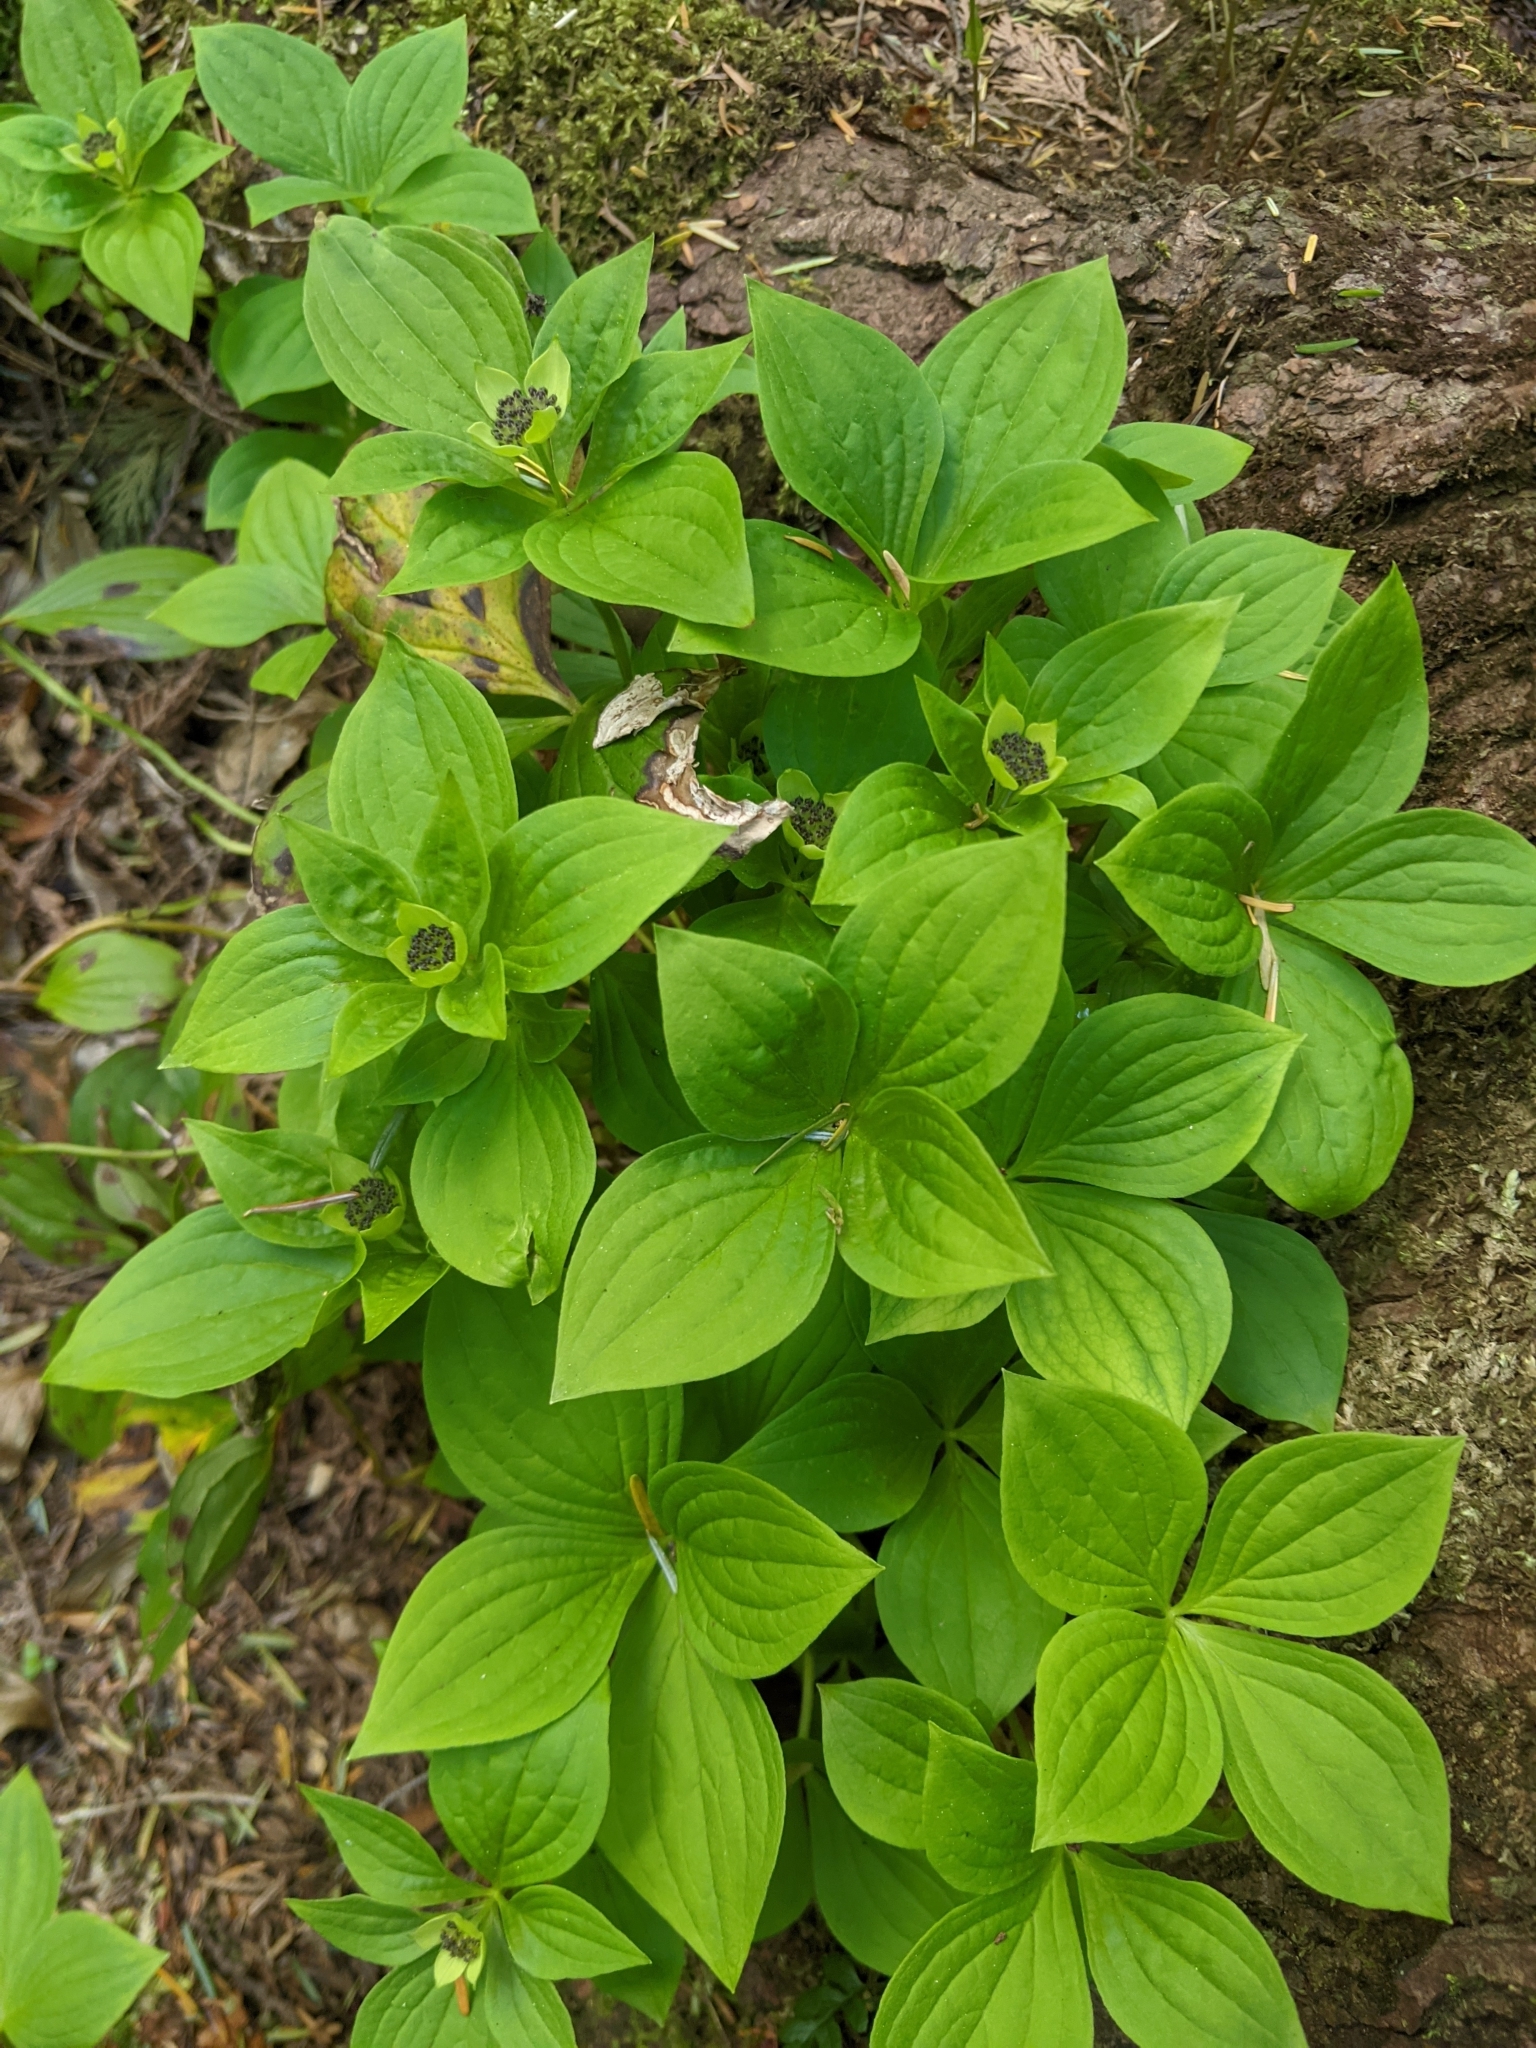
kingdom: Plantae
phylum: Tracheophyta
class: Magnoliopsida
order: Cornales
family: Cornaceae
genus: Cornus
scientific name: Cornus unalaschkensis
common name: Alaska bunchberry
